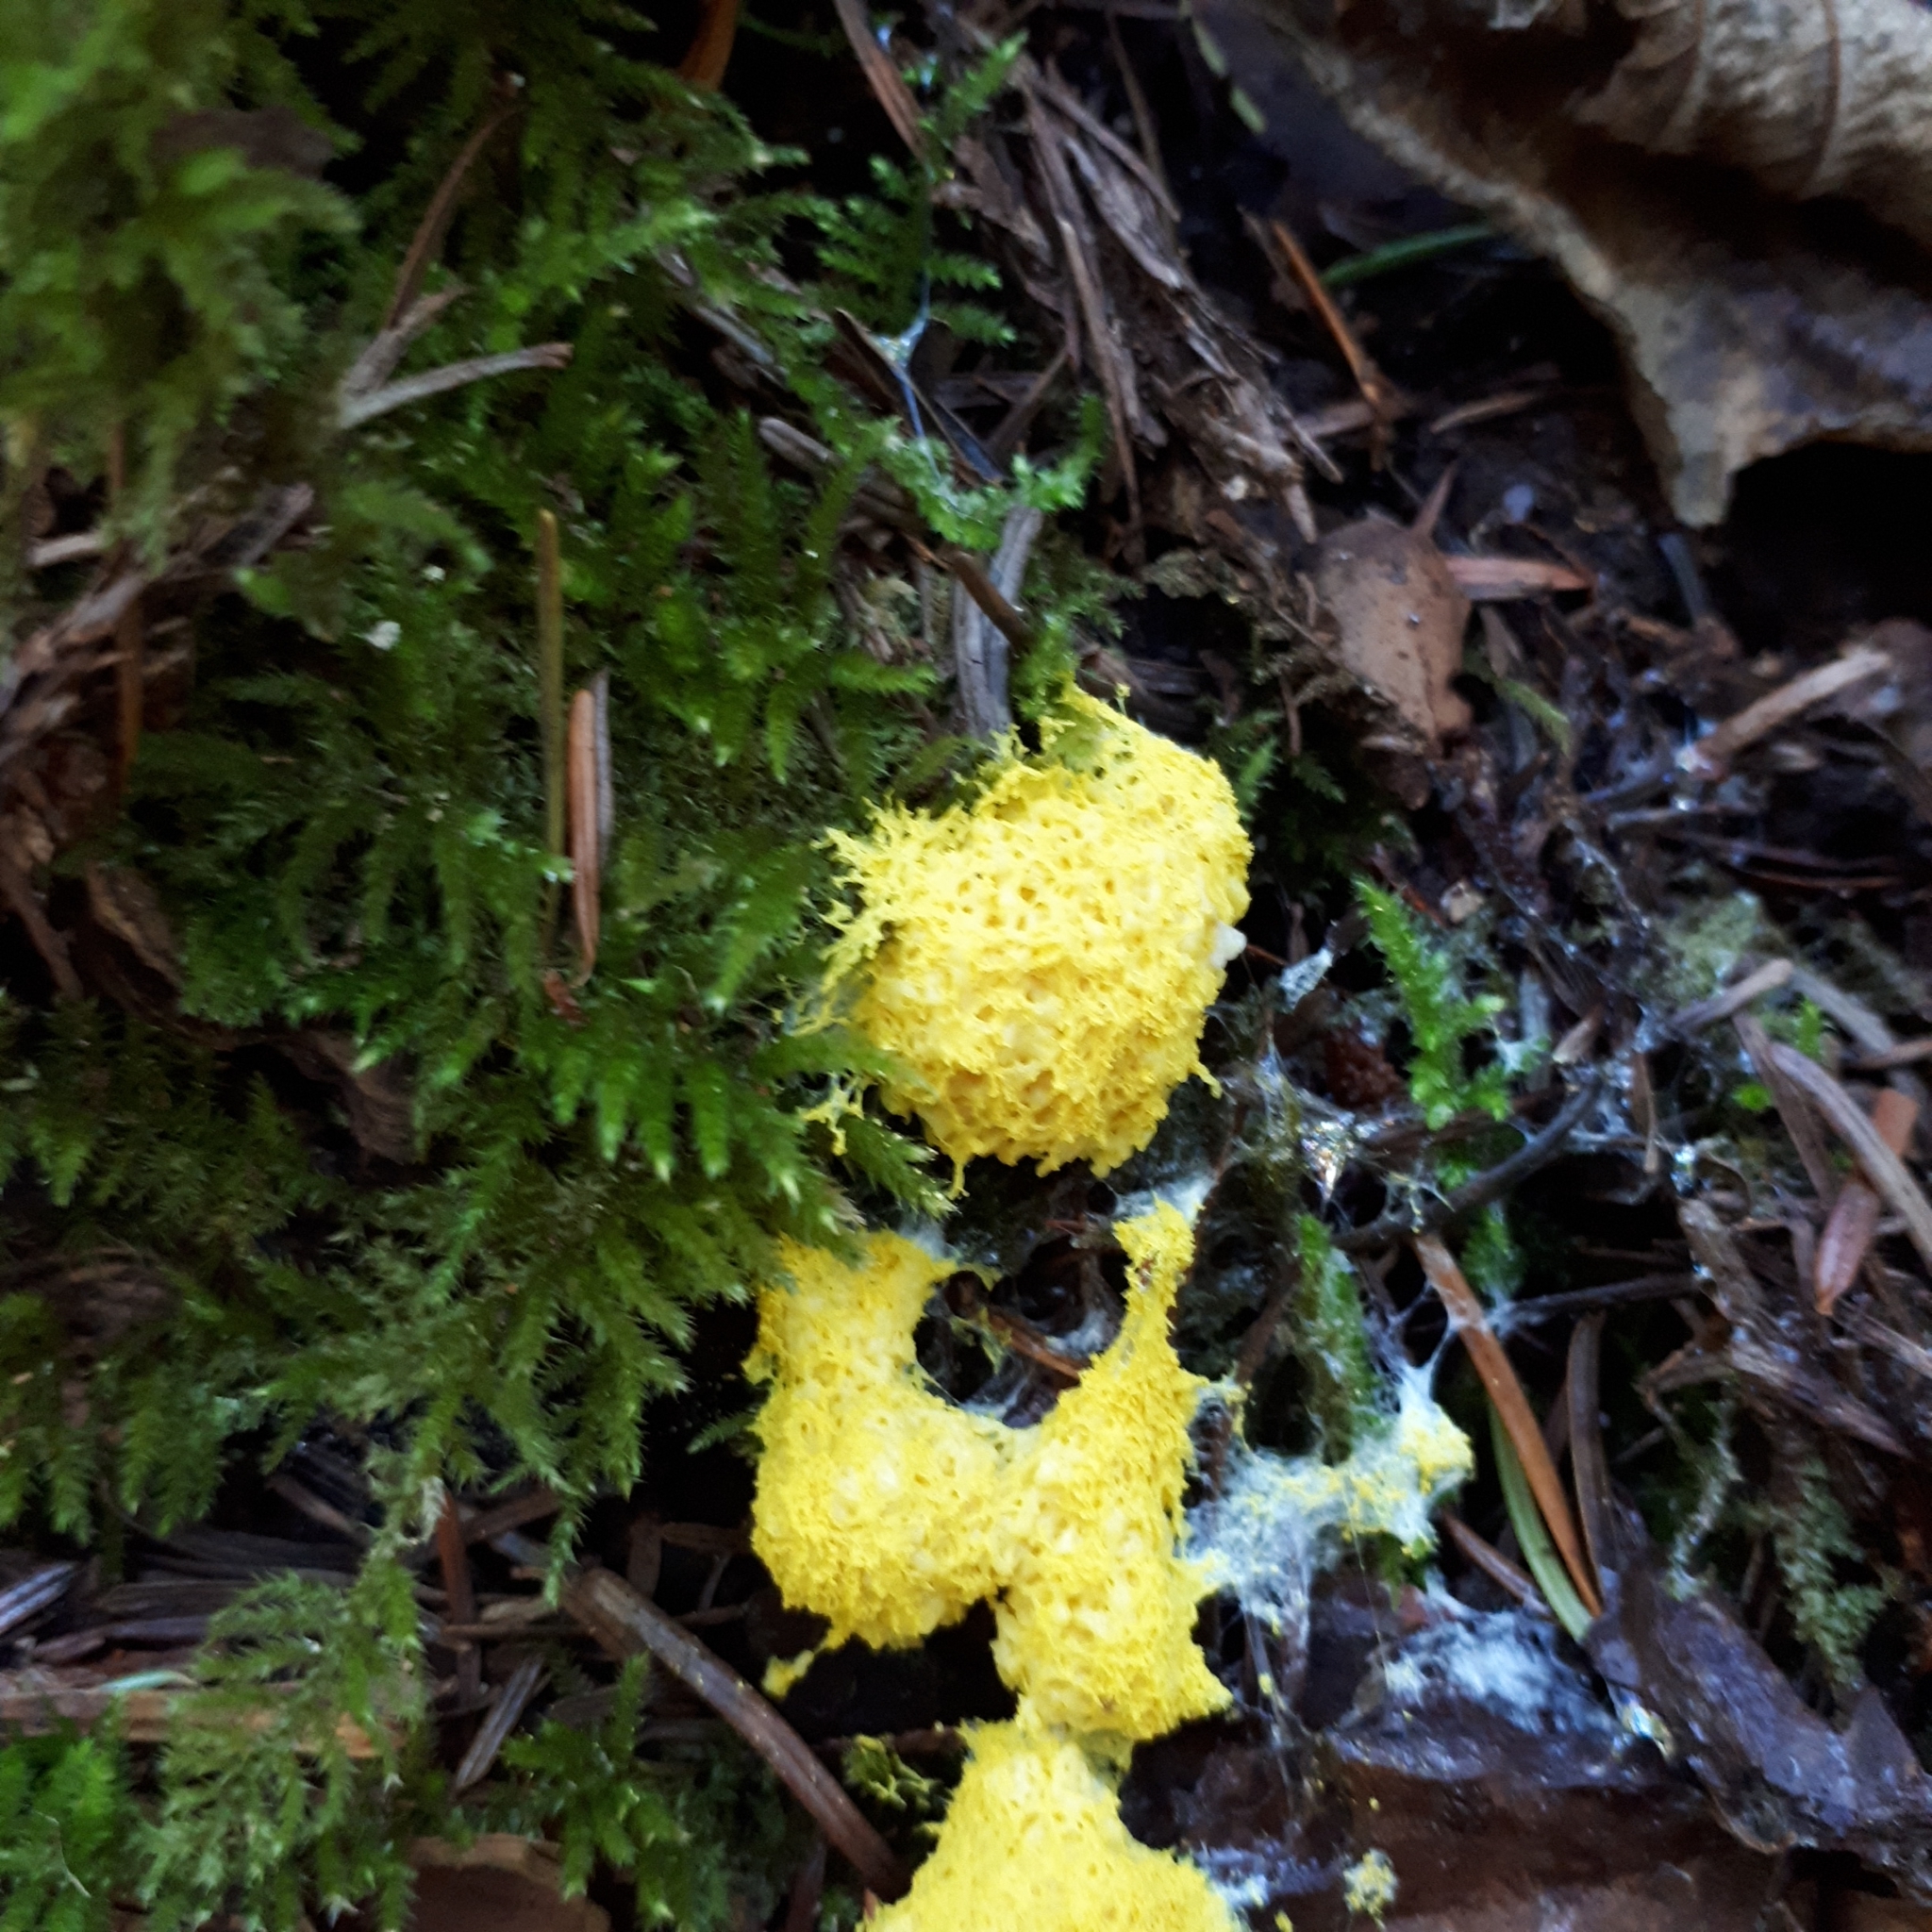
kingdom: Protozoa
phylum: Mycetozoa
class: Myxomycetes
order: Physarales
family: Physaraceae
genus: Fuligo
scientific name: Fuligo septica
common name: Dog vomit slime mold
